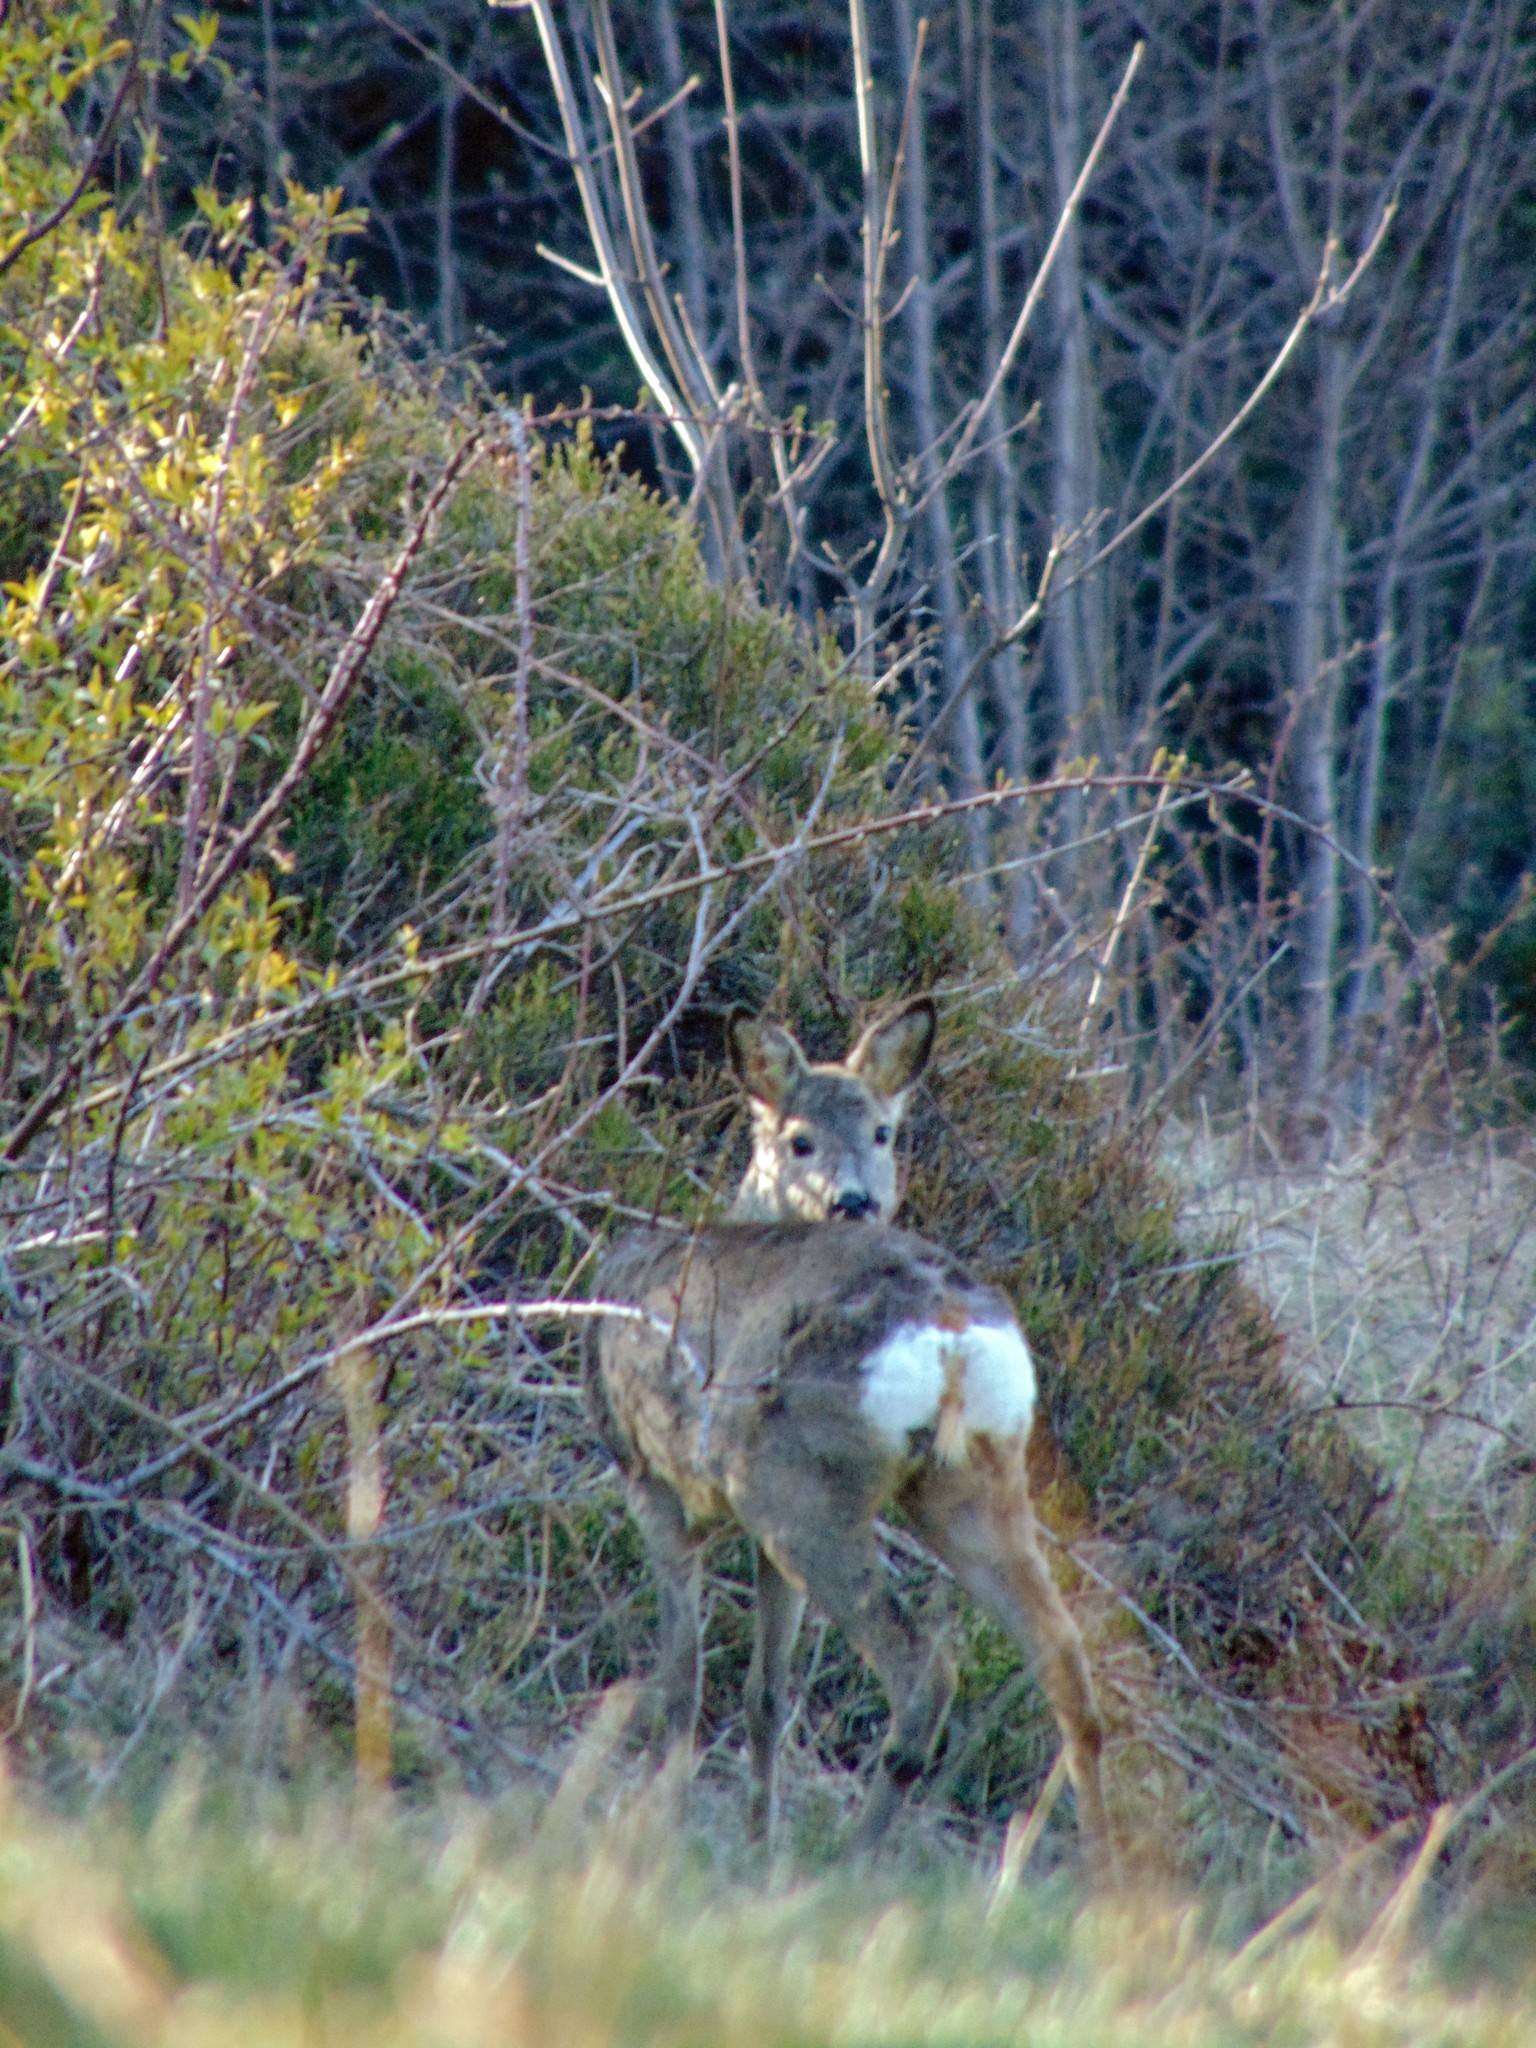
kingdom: Animalia
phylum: Chordata
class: Mammalia
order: Artiodactyla
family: Cervidae
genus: Capreolus
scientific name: Capreolus capreolus
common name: Western roe deer
